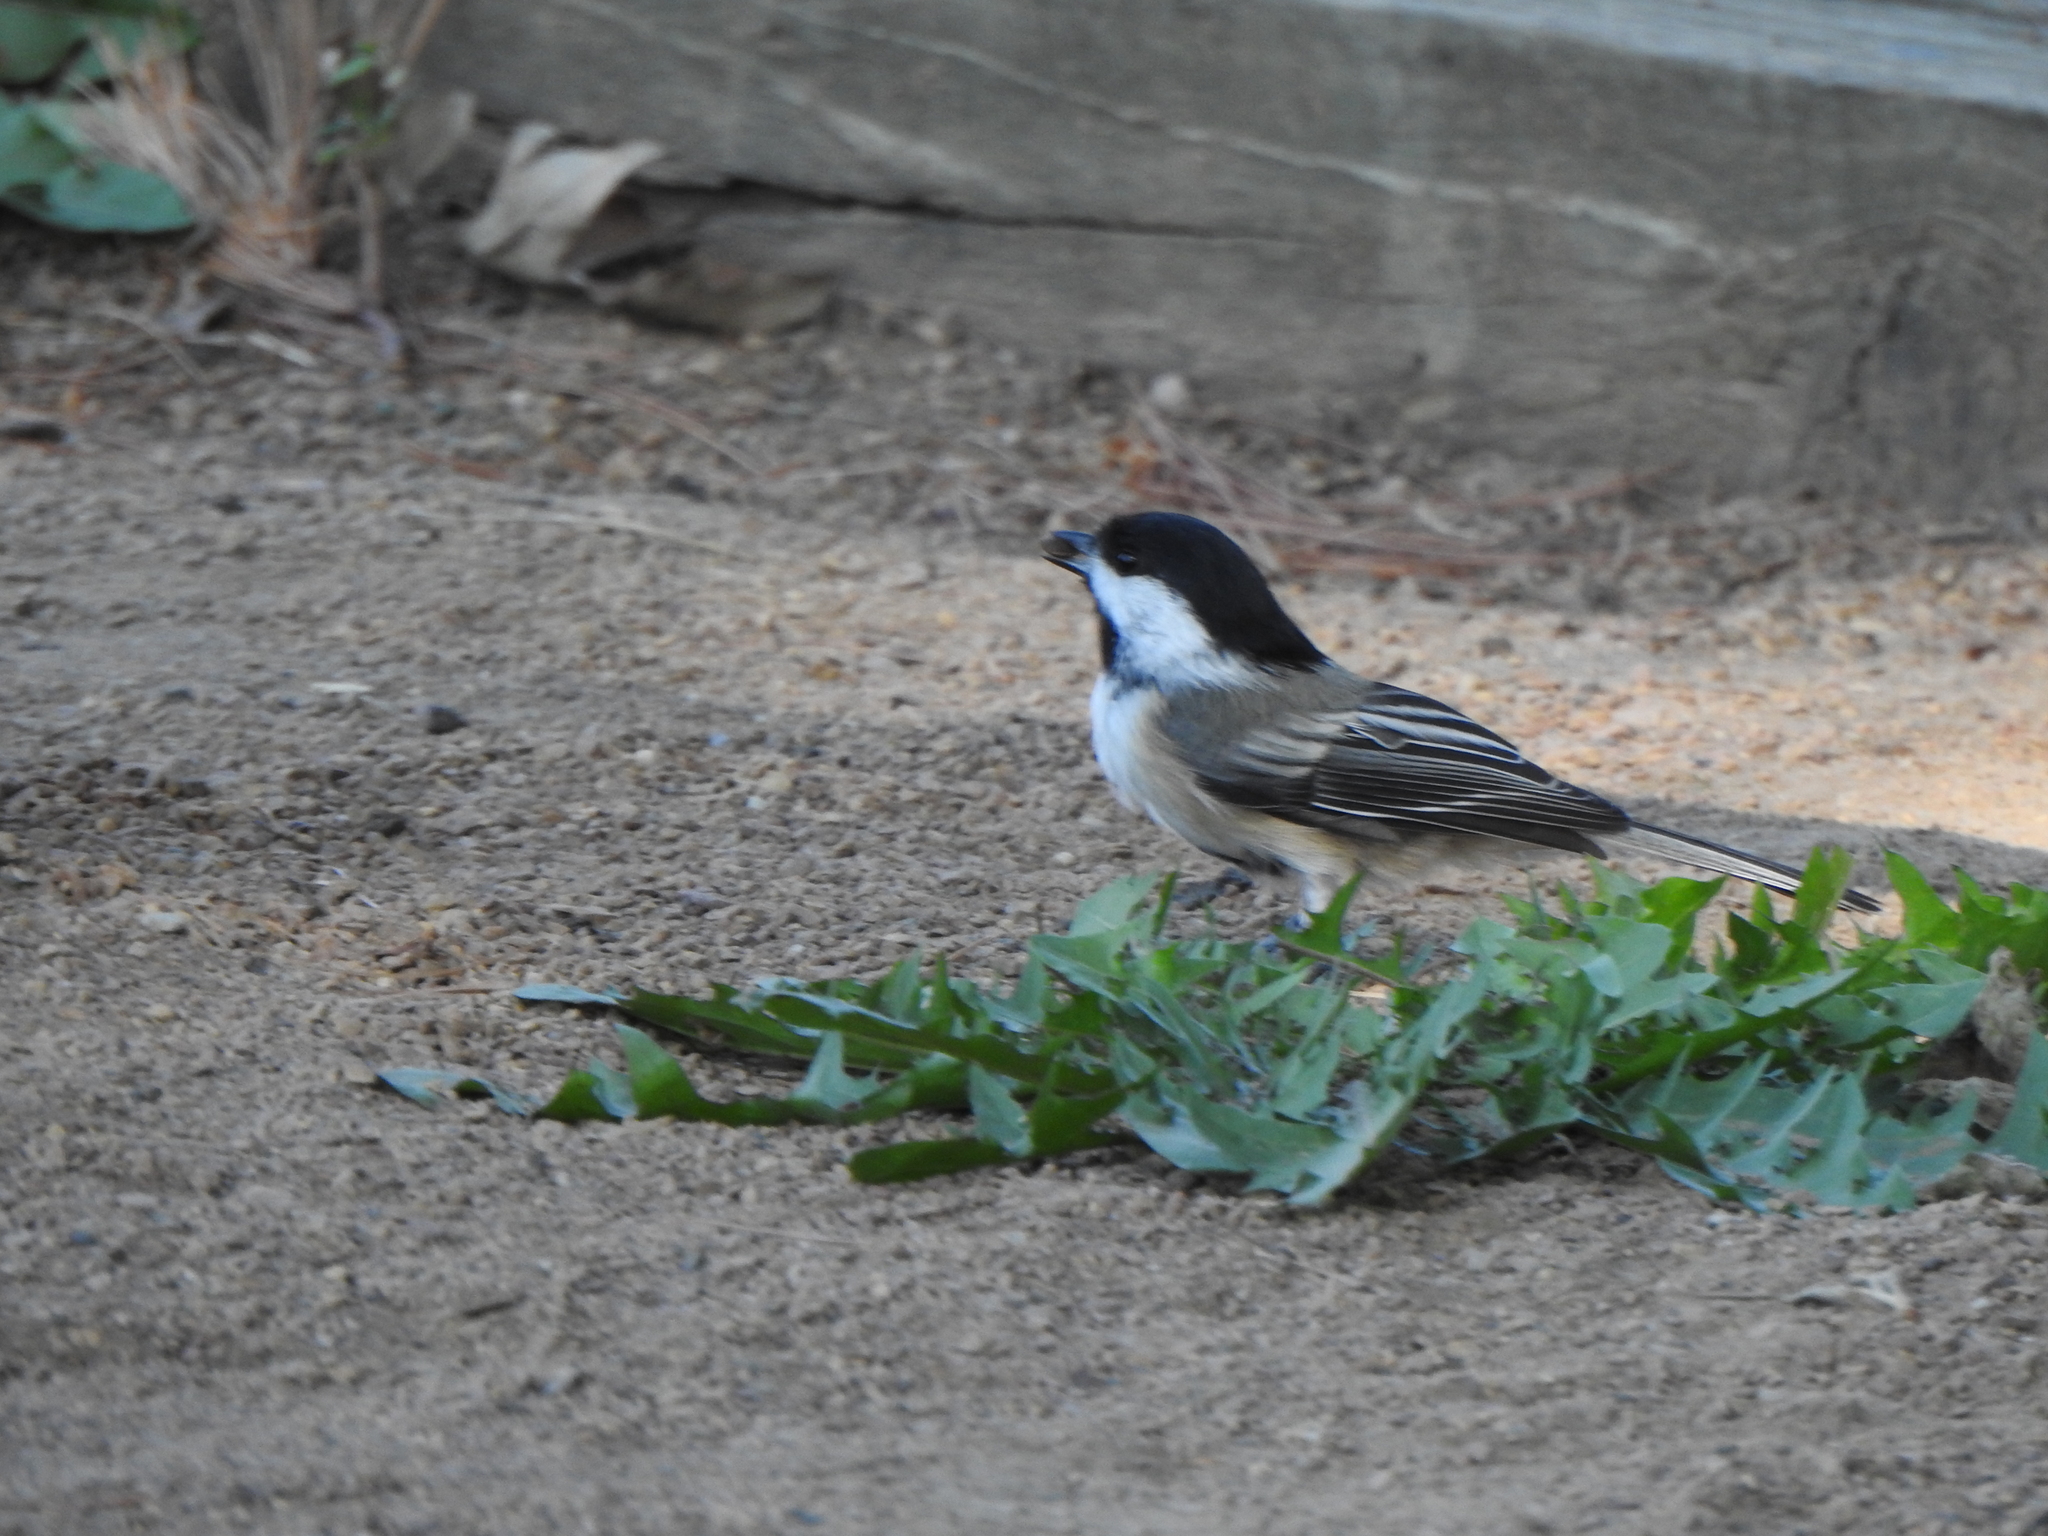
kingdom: Animalia
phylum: Chordata
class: Aves
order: Passeriformes
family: Paridae
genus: Poecile
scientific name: Poecile atricapillus
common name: Black-capped chickadee
